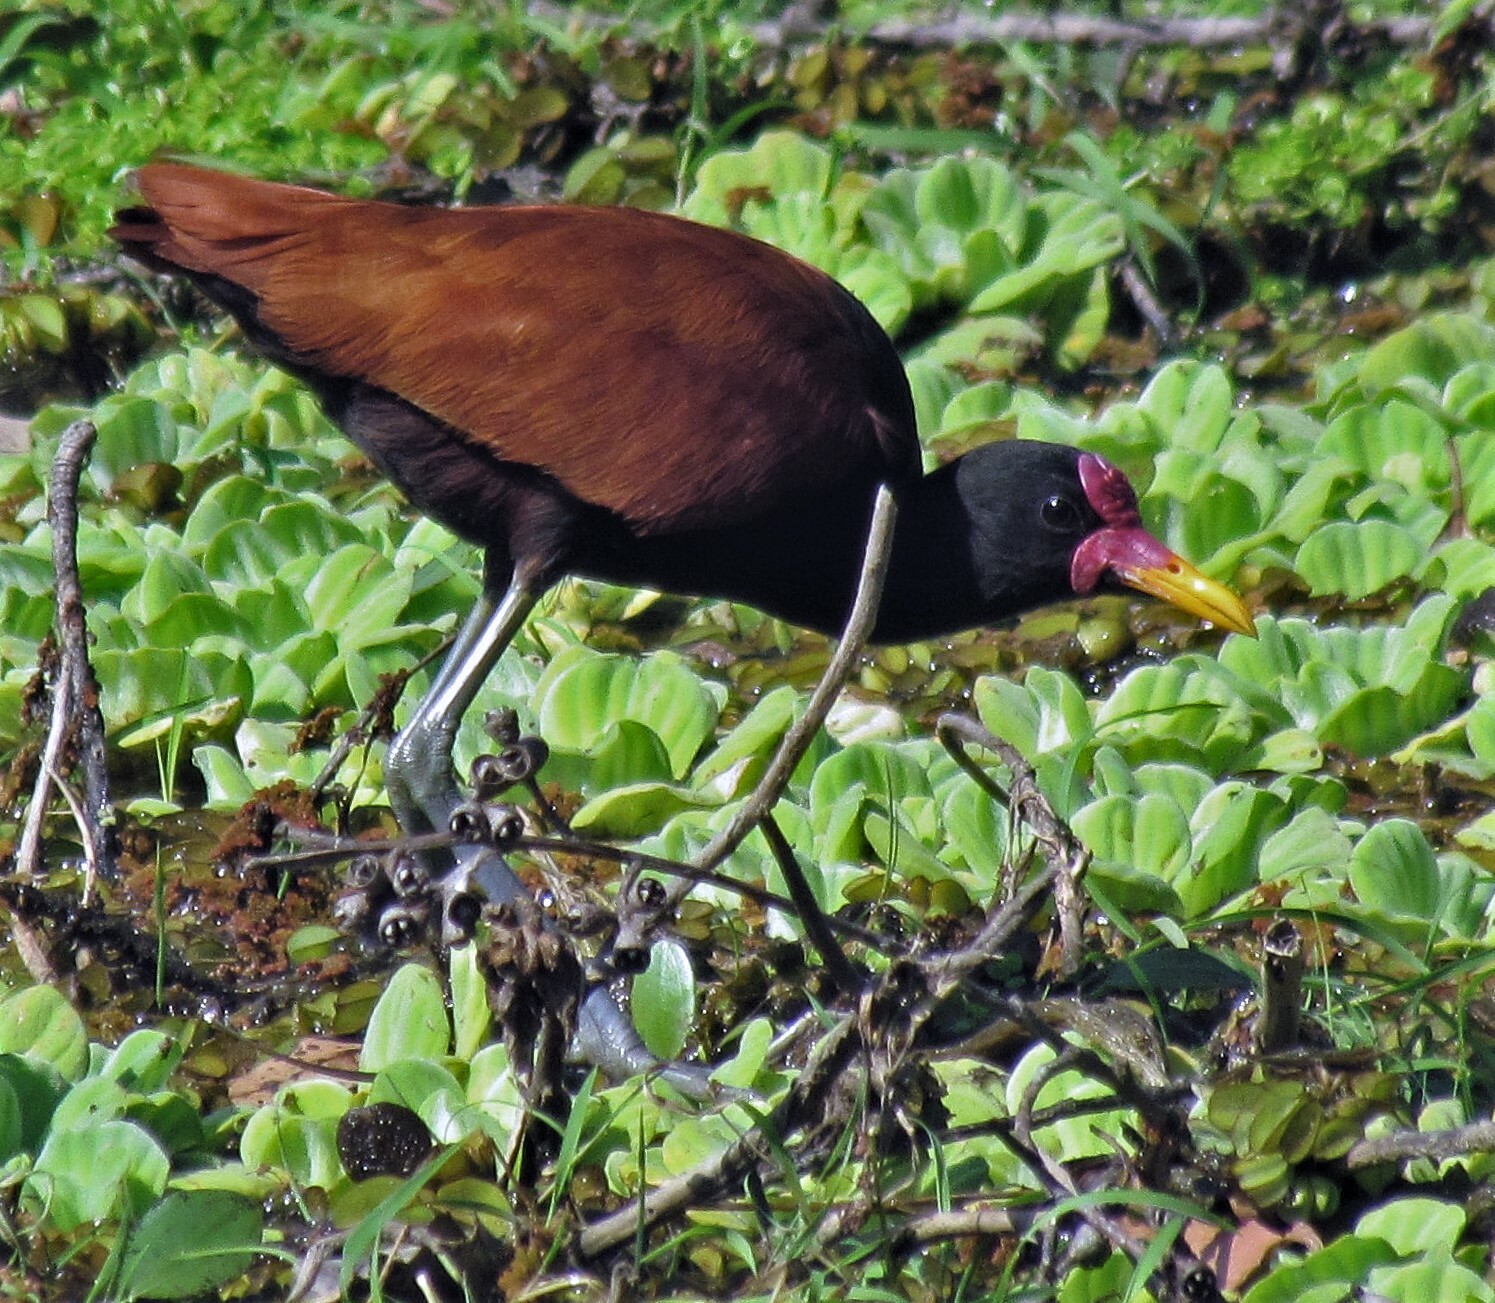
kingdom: Animalia
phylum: Chordata
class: Aves
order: Charadriiformes
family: Jacanidae
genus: Jacana
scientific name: Jacana jacana
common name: Wattled jacana
